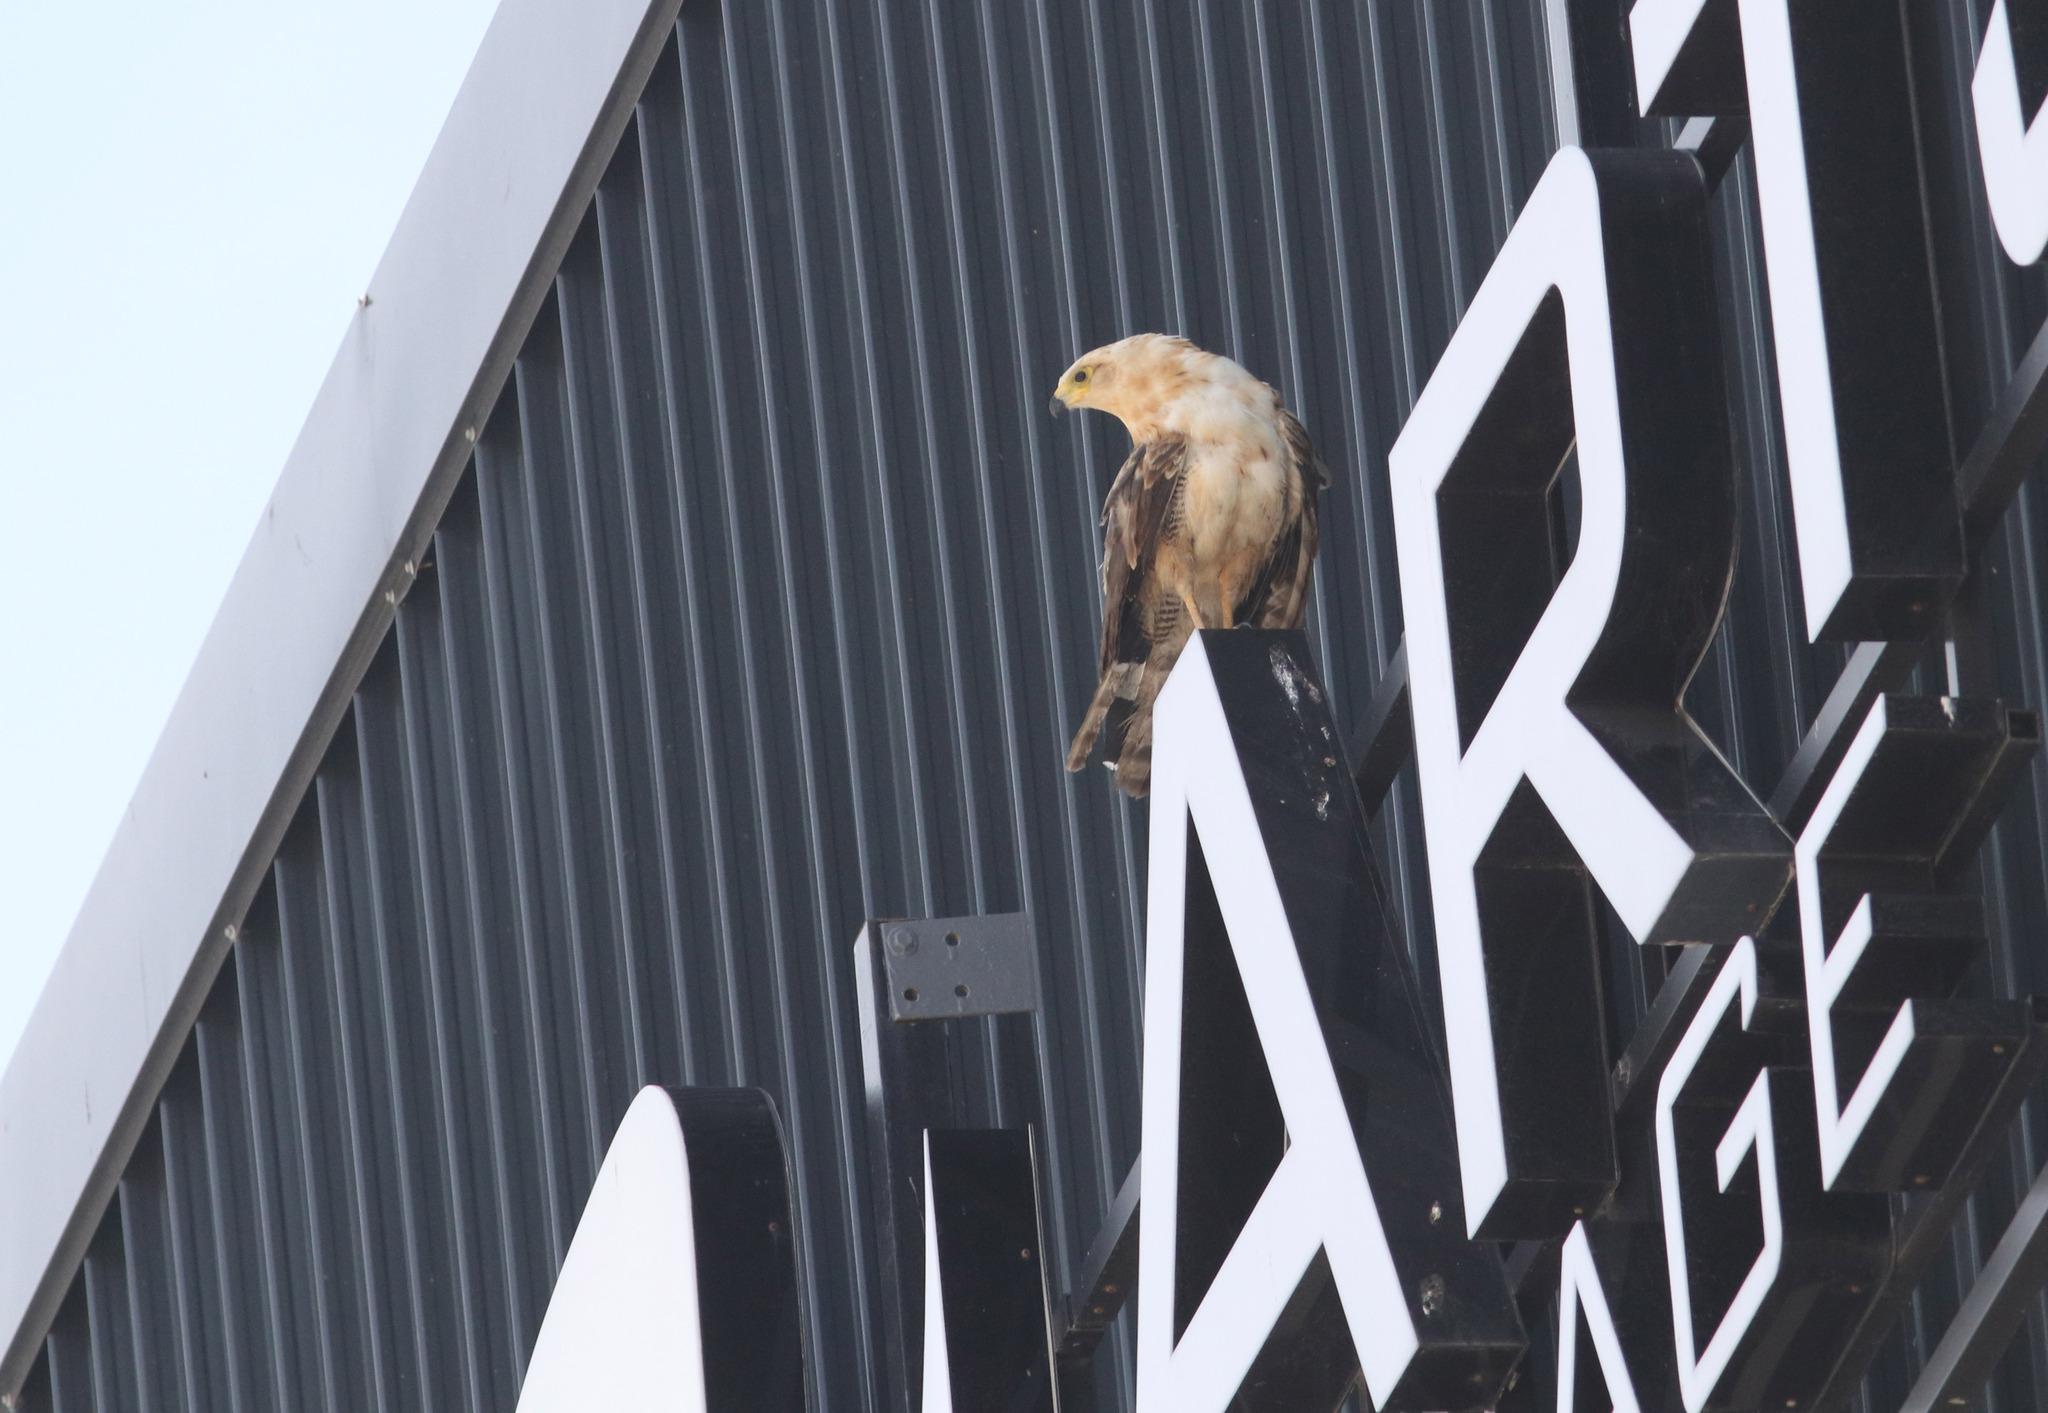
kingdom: Animalia
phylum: Chordata
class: Aves
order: Accipitriformes
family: Accipitridae
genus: Polyboroides
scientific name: Polyboroides typus
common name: African harrier-hawk
